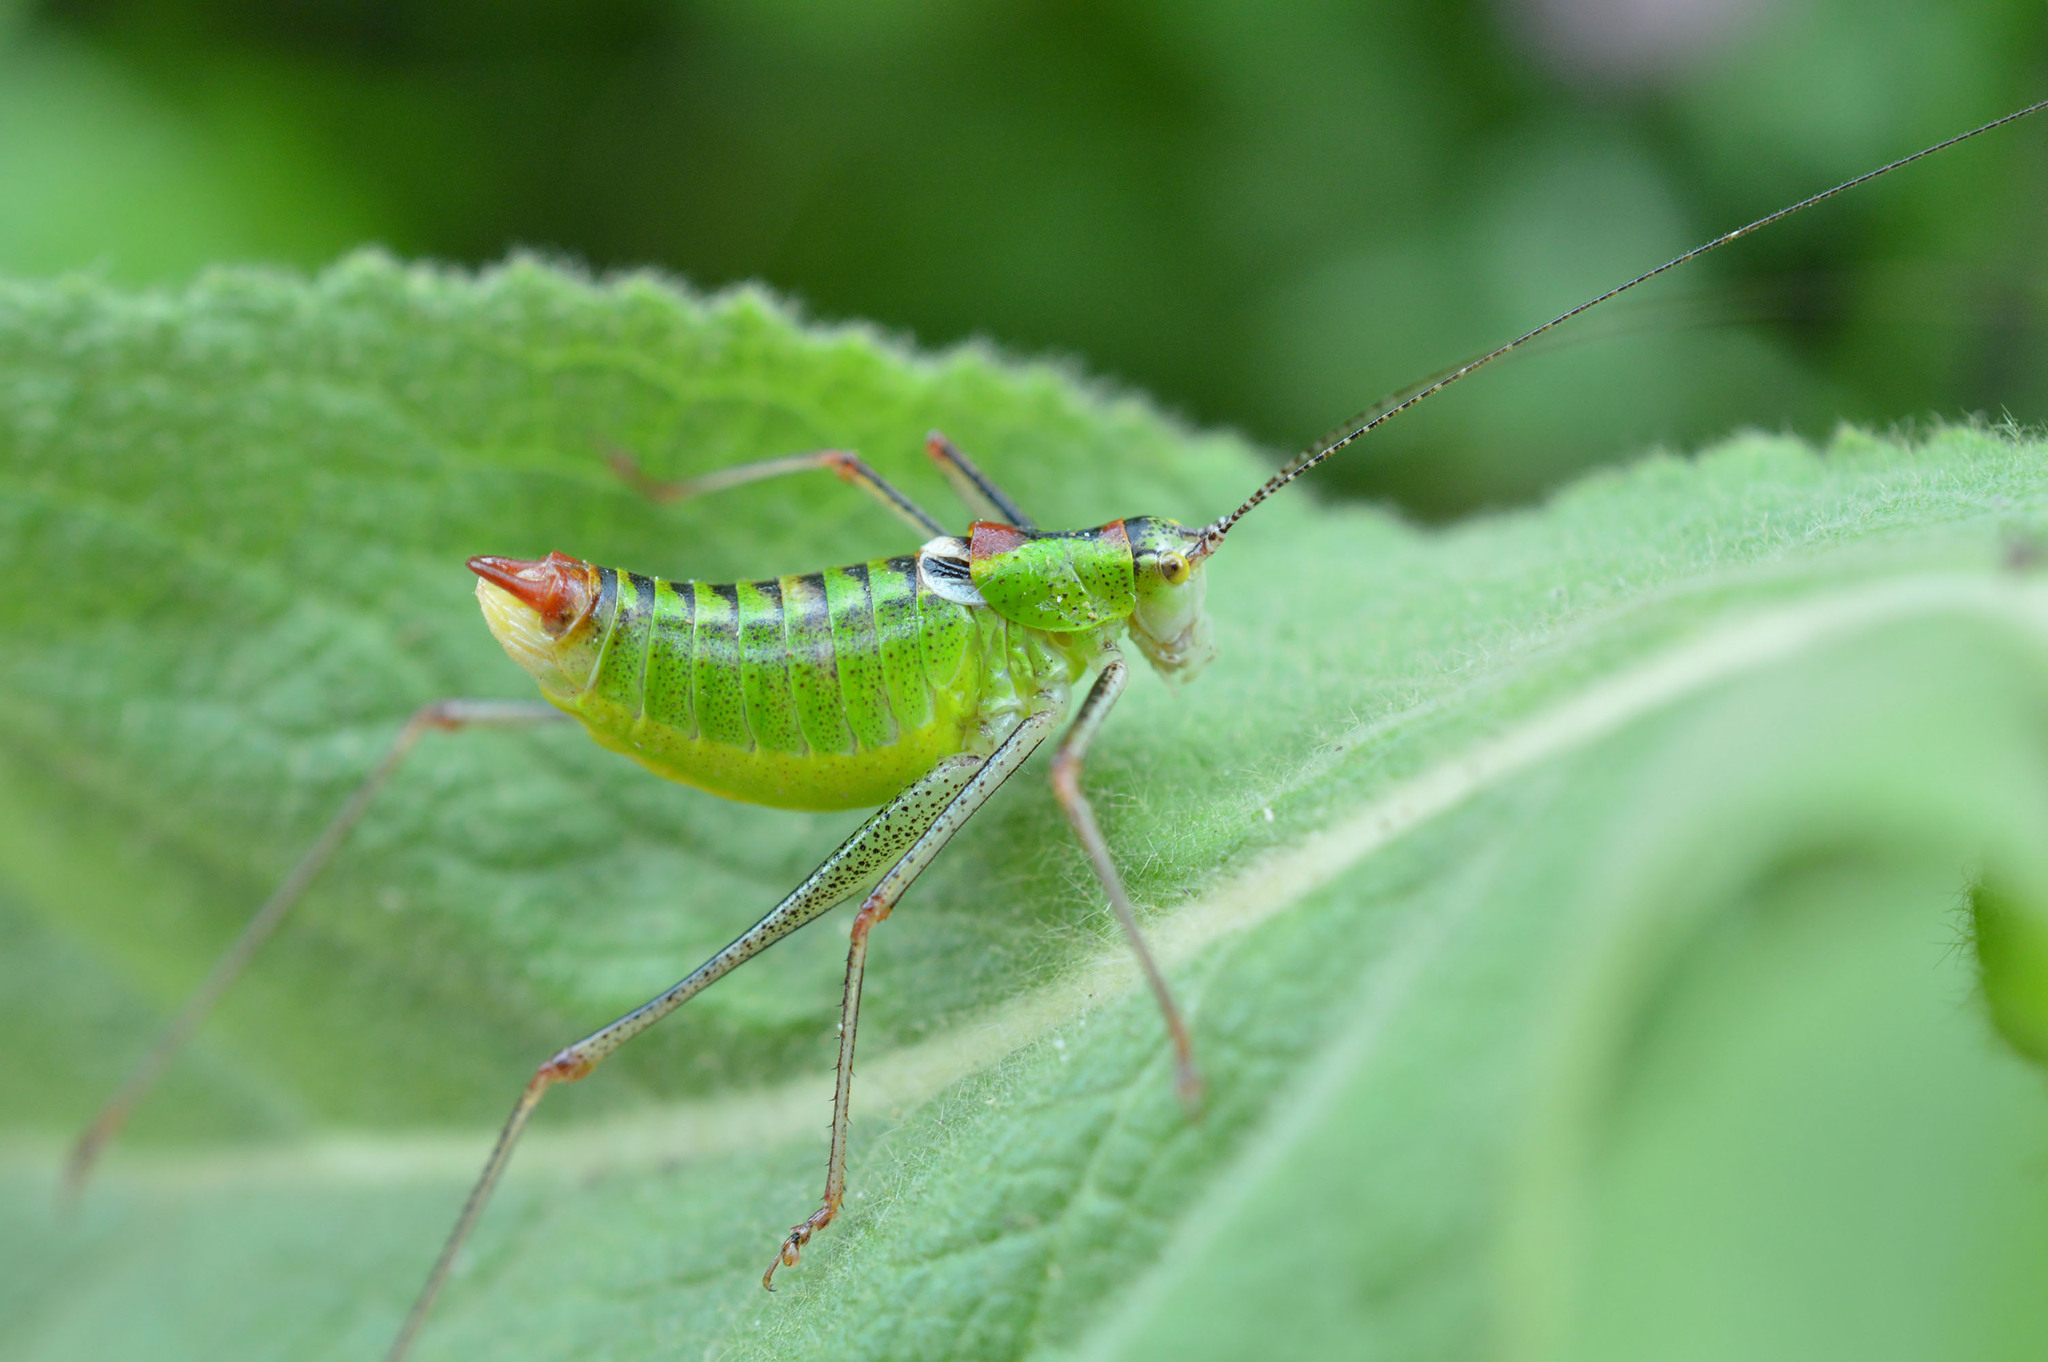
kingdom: Animalia
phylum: Arthropoda
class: Insecta
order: Orthoptera
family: Tettigoniidae
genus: Poecilimon
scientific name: Poecilimon thoracicus
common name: Bellied bright bush-cricket
